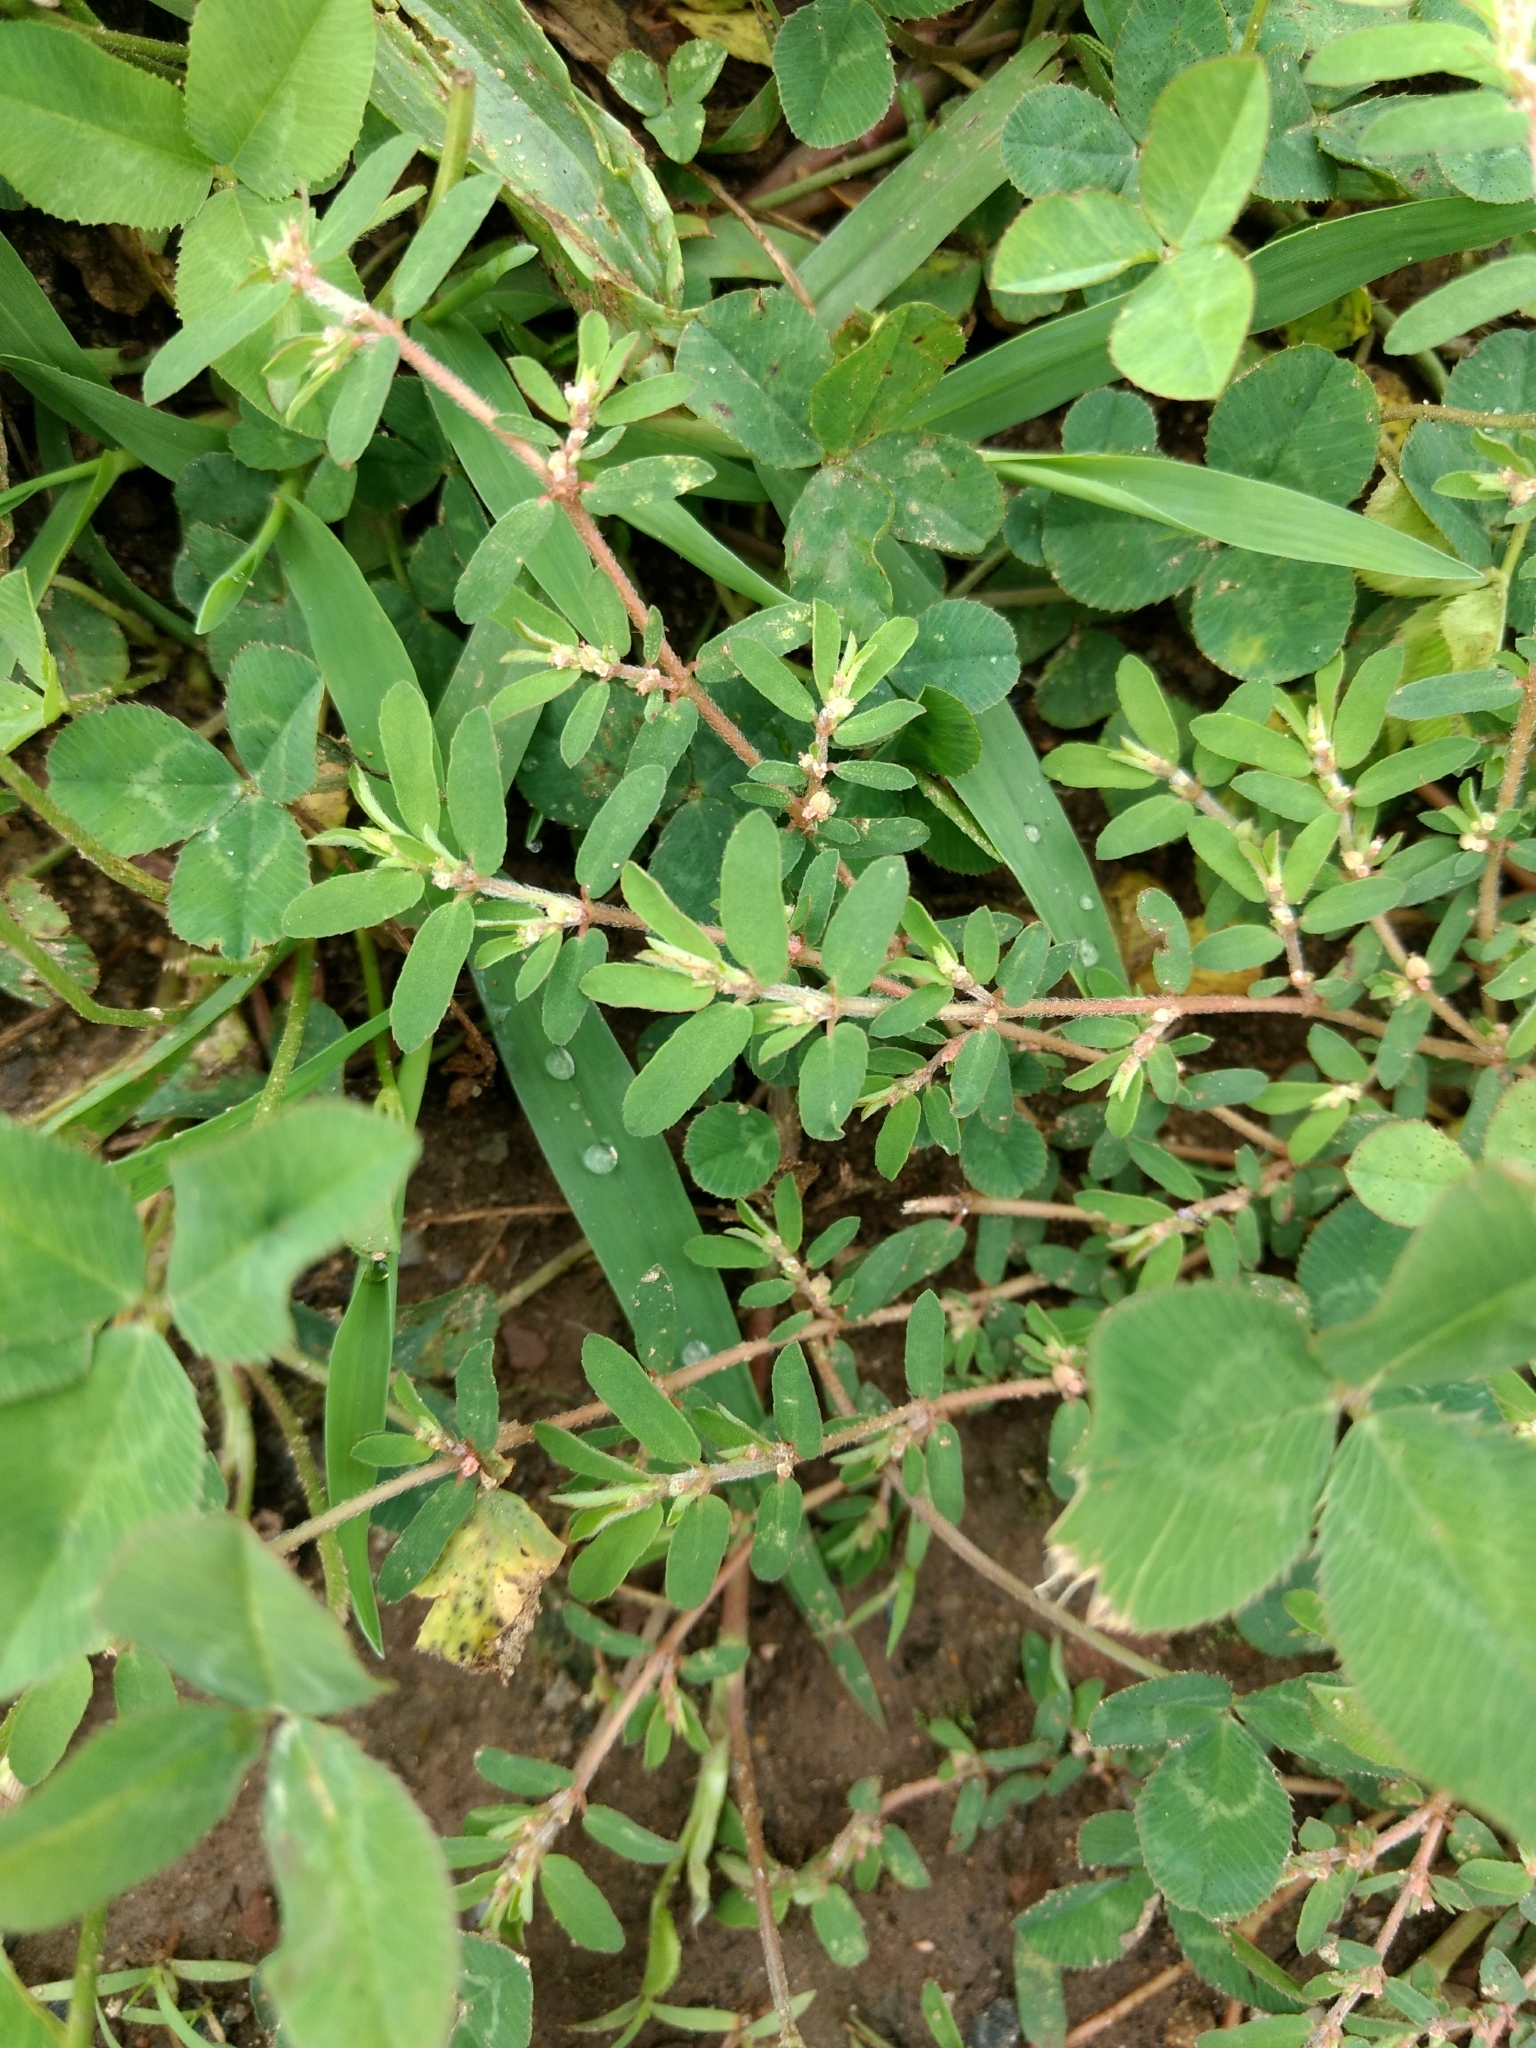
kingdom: Plantae
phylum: Tracheophyta
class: Magnoliopsida
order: Malpighiales
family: Euphorbiaceae
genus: Euphorbia
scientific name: Euphorbia maculata
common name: Spotted spurge
